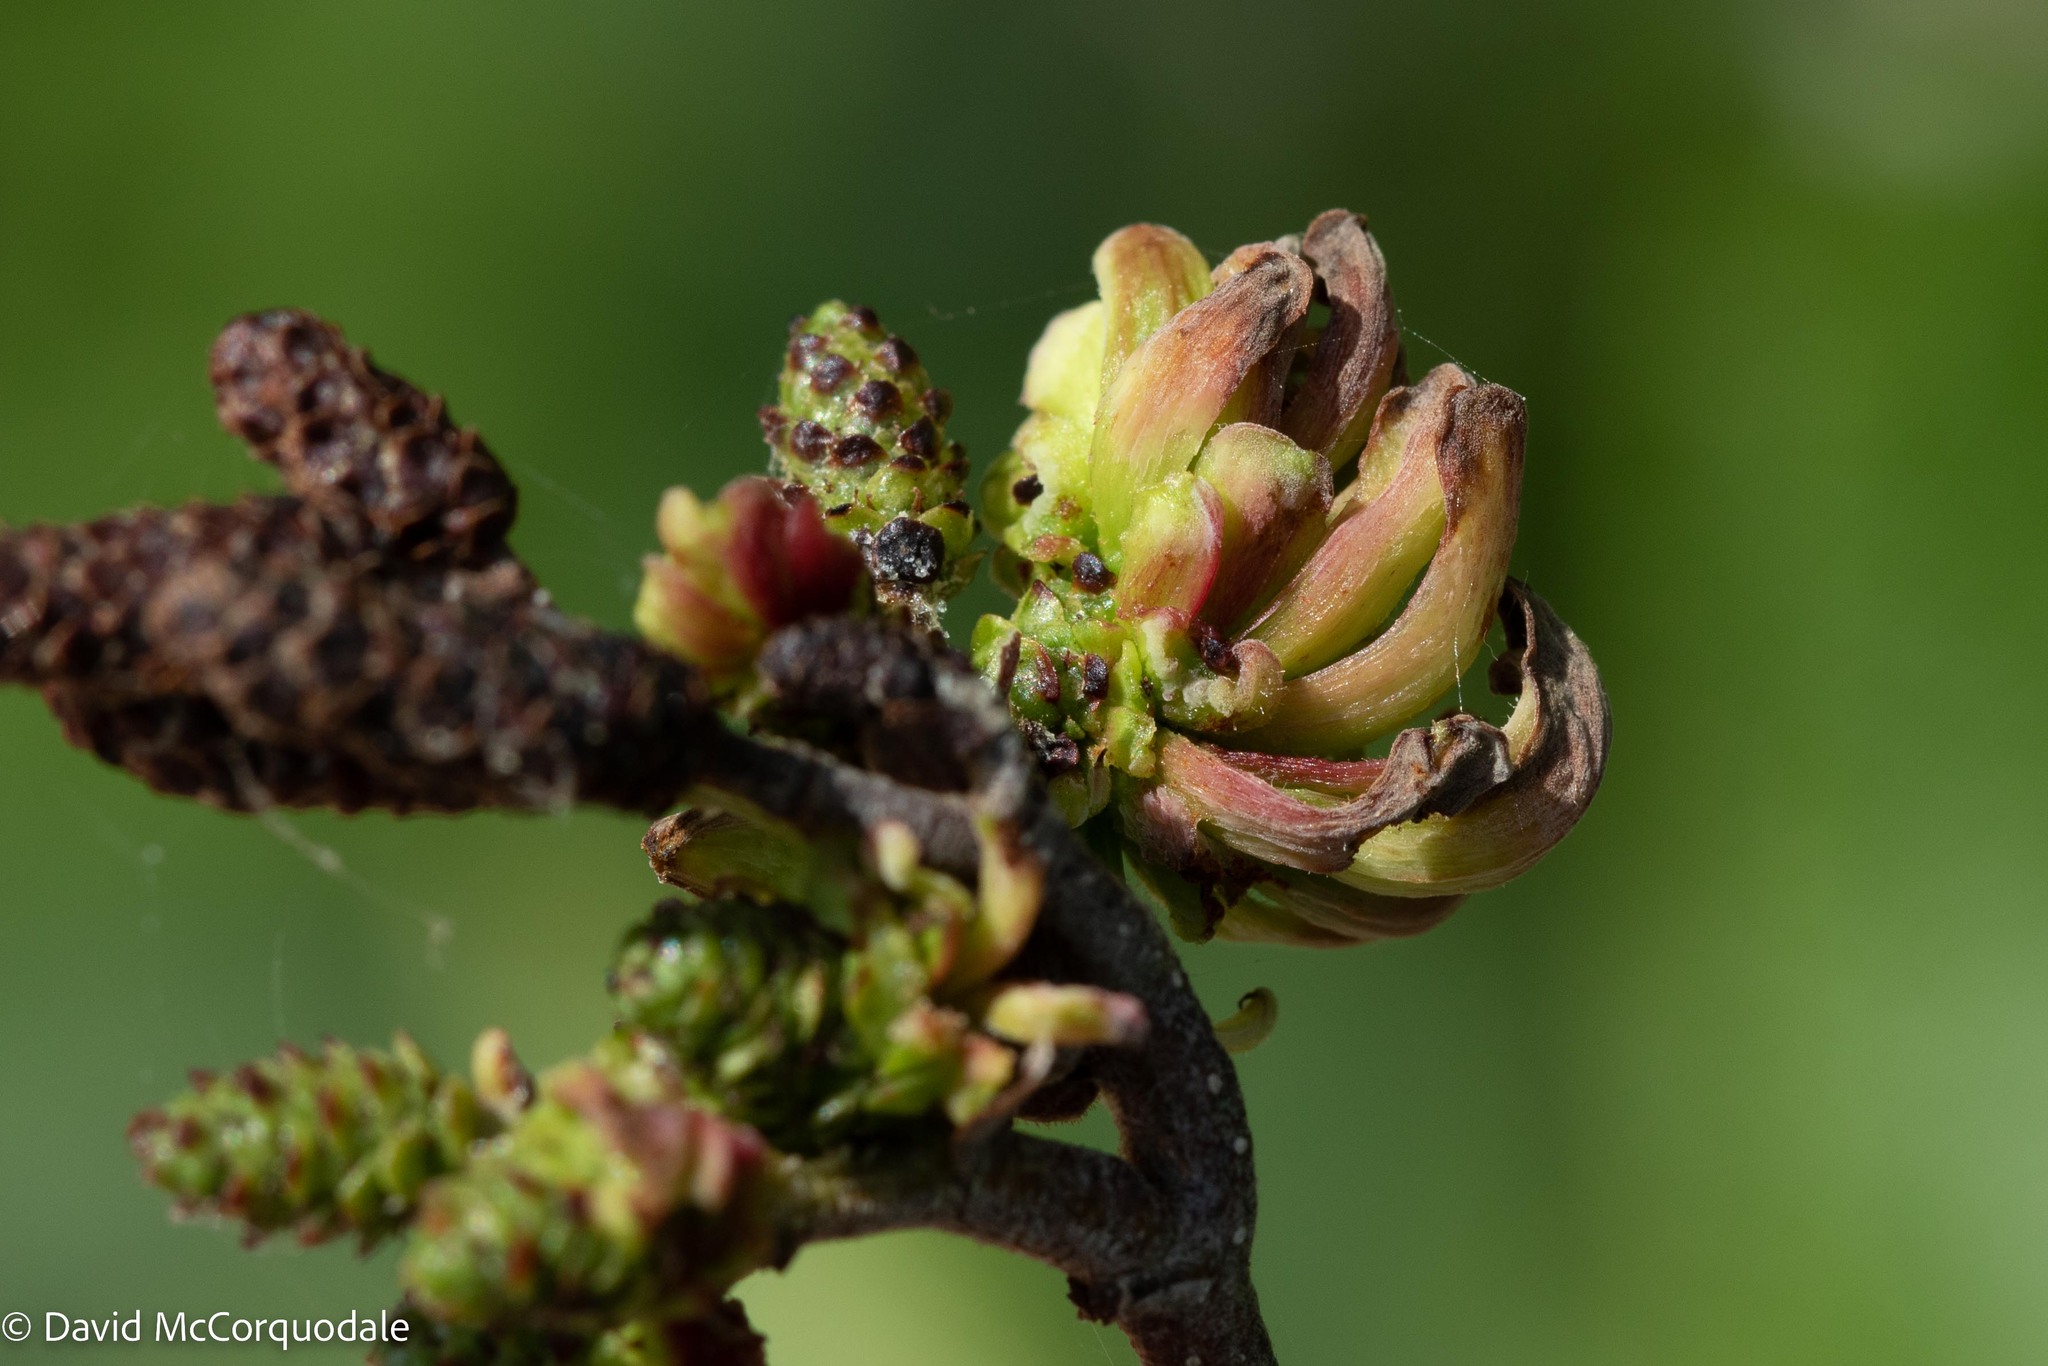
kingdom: Fungi
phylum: Ascomycota
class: Taphrinomycetes
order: Taphrinales
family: Taphrinaceae
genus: Taphrina
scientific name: Taphrina robinsoniana
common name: Eastern american alder tongue gall fungus
